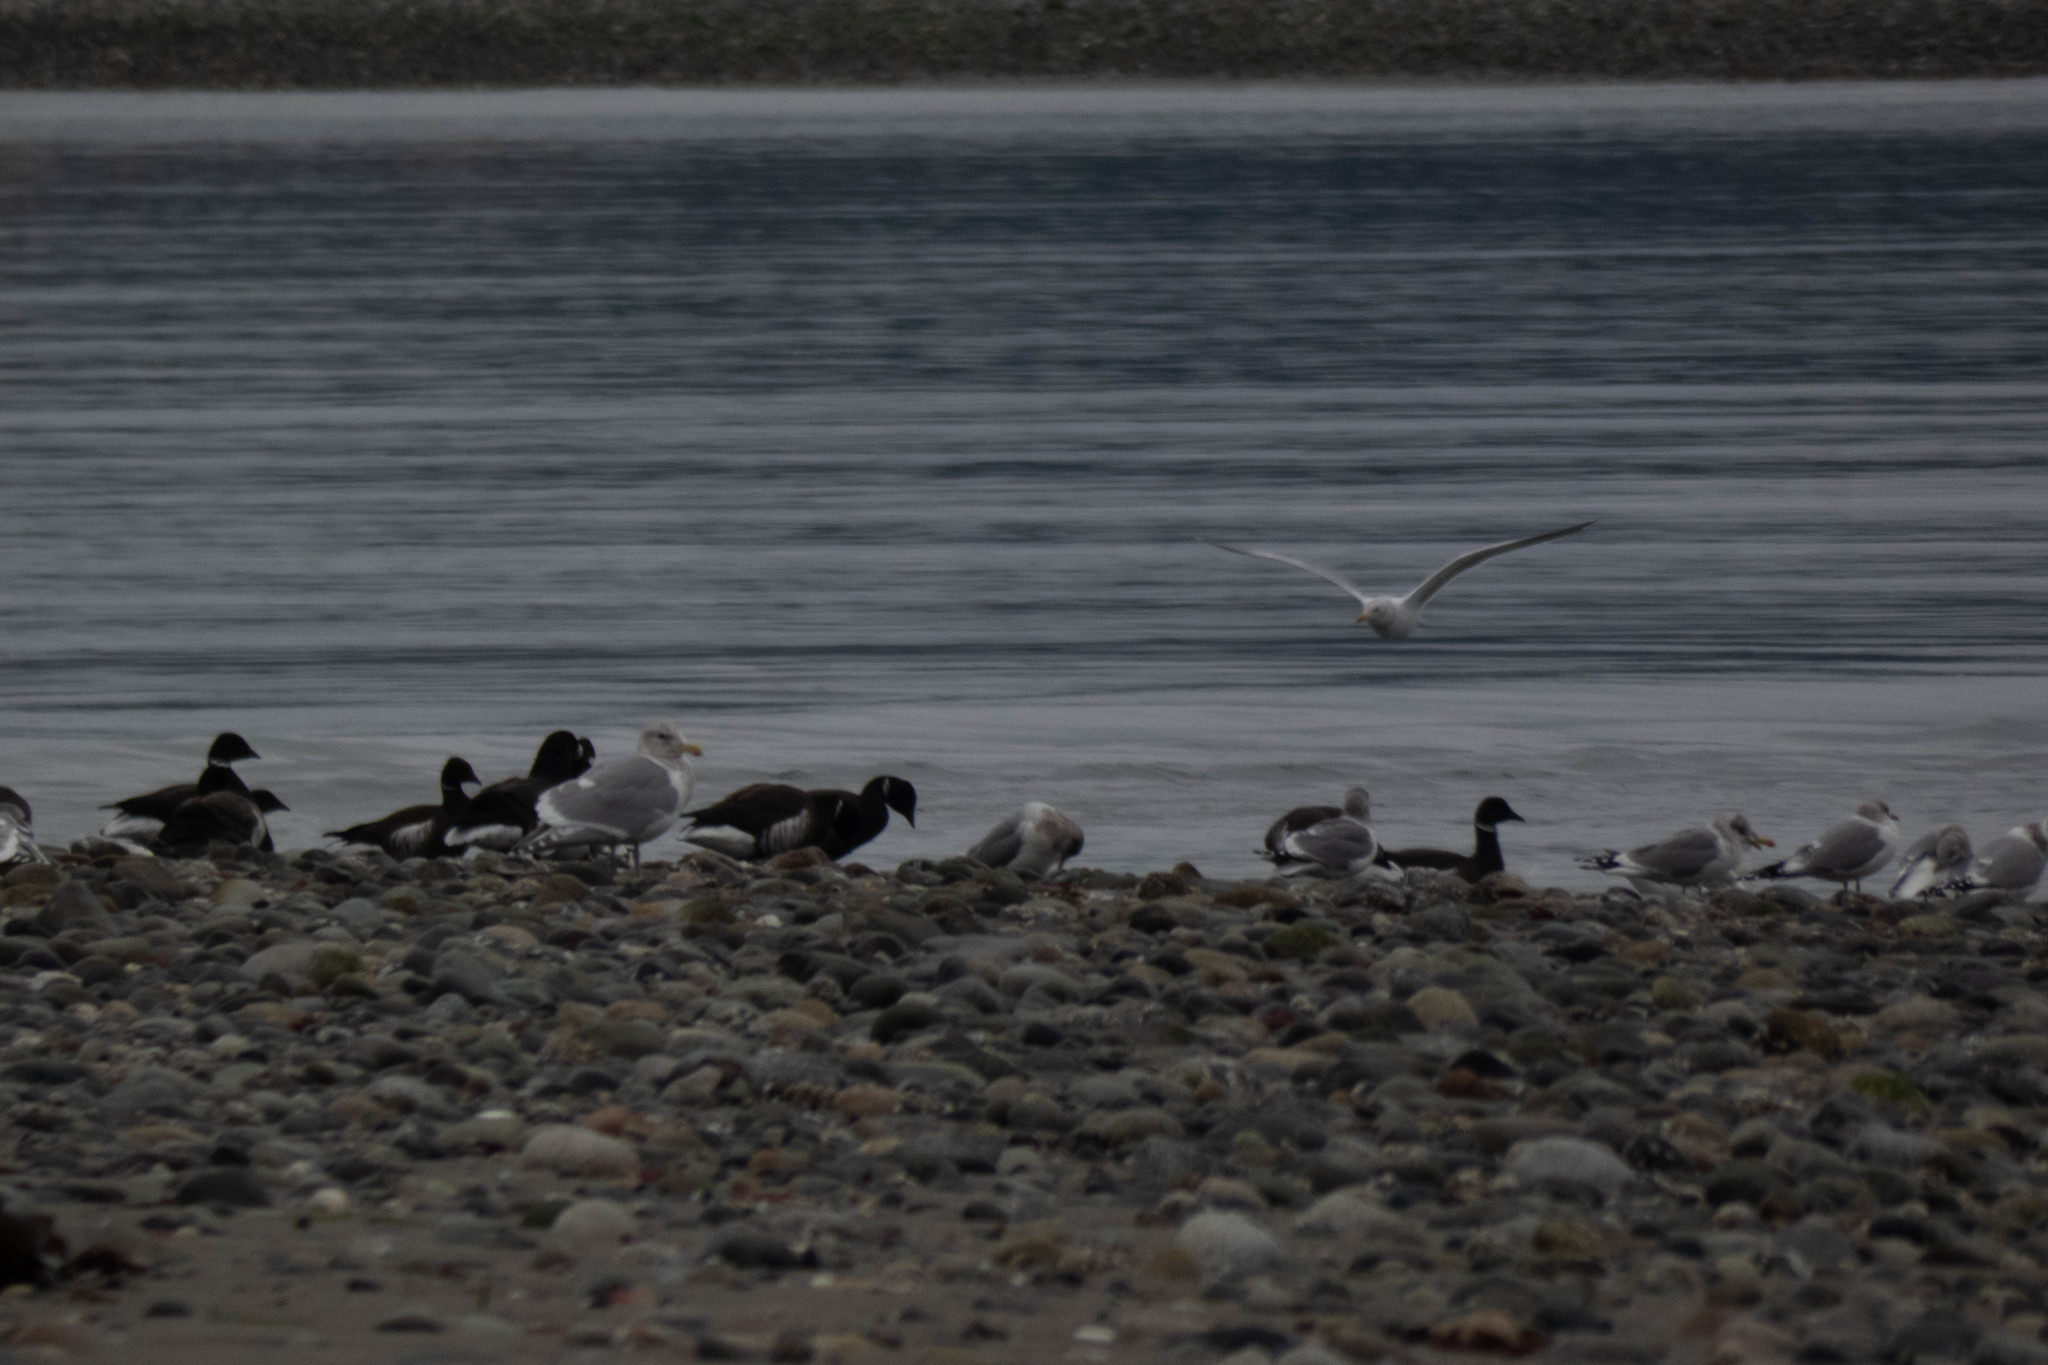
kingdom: Animalia
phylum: Chordata
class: Aves
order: Anseriformes
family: Anatidae
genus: Branta
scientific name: Branta bernicla
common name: Brant goose
